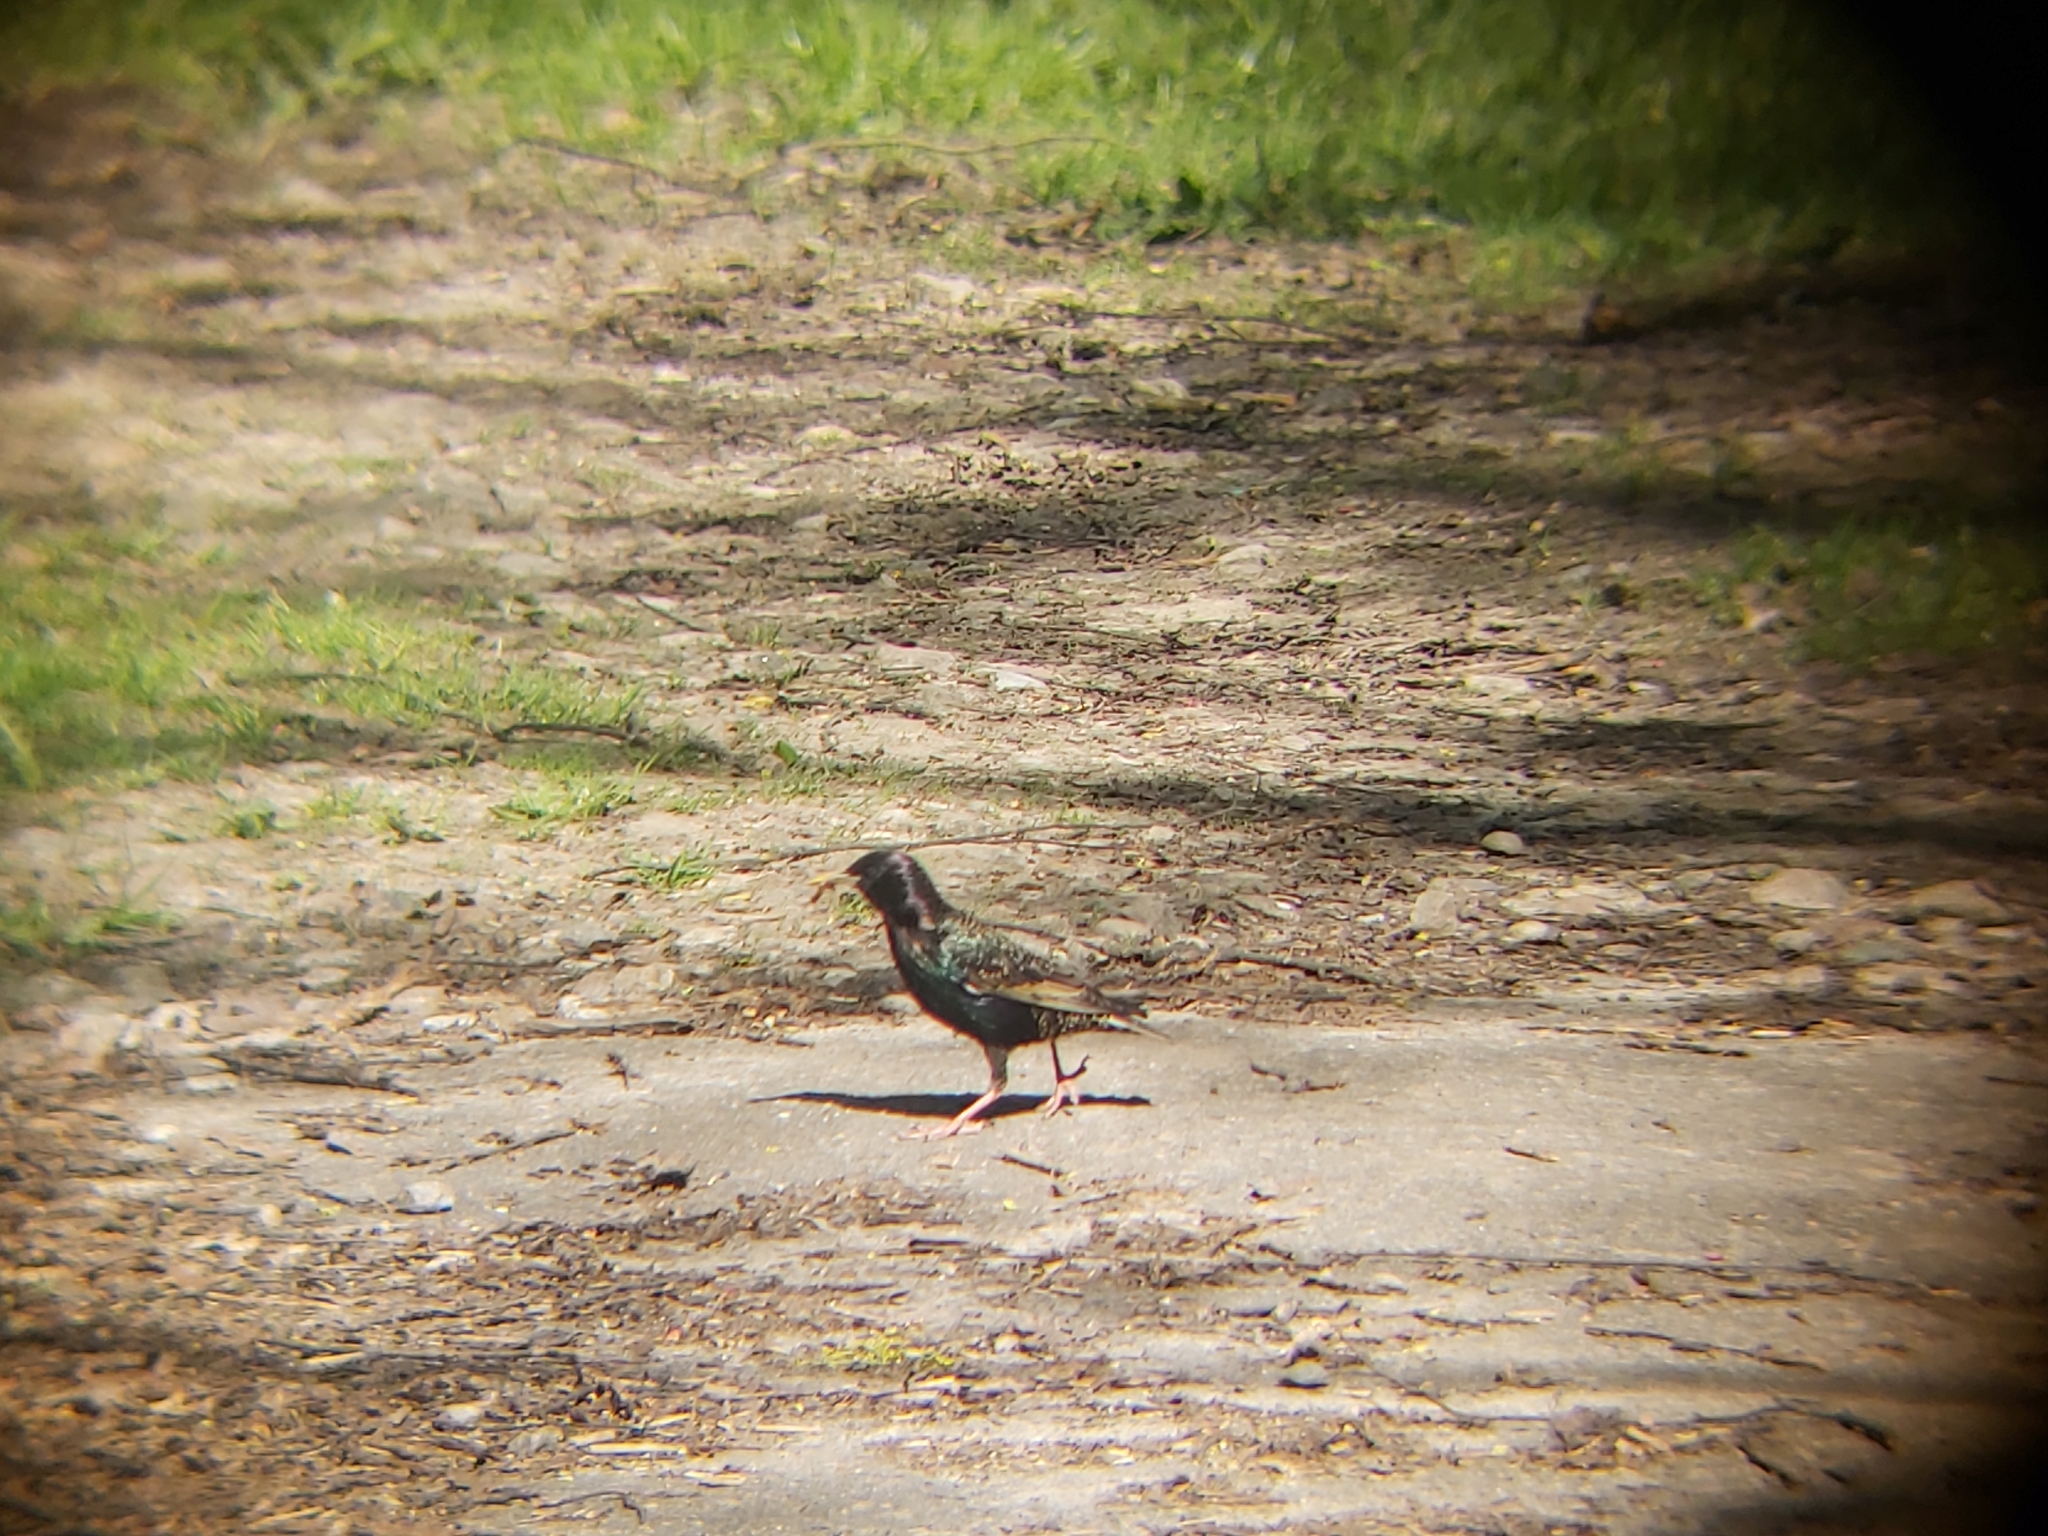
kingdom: Animalia
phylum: Chordata
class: Aves
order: Passeriformes
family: Sturnidae
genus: Sturnus
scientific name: Sturnus vulgaris
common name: Common starling
